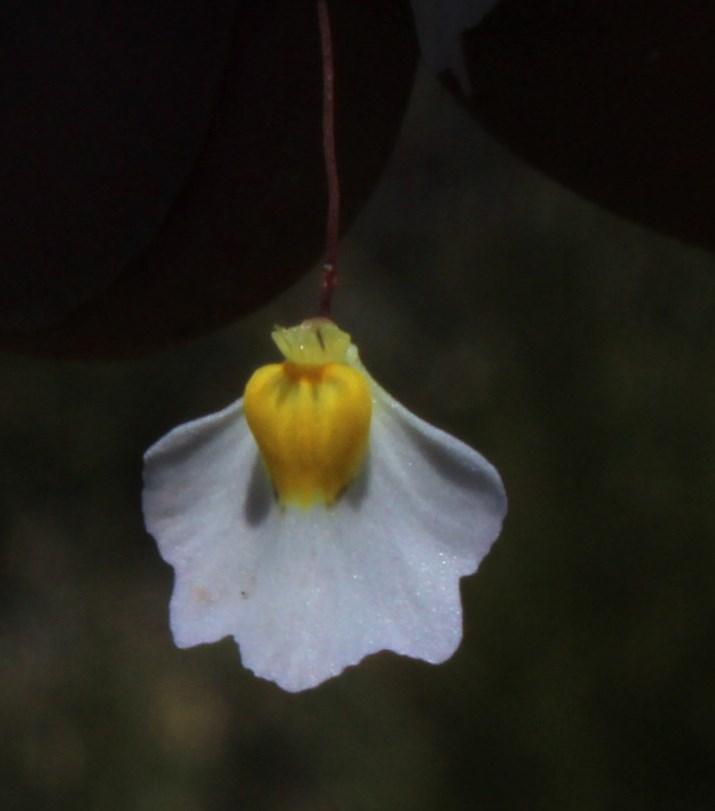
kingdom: Plantae
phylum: Tracheophyta
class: Magnoliopsida
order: Lamiales
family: Lentibulariaceae
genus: Utricularia
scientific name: Utricularia bisquamata
